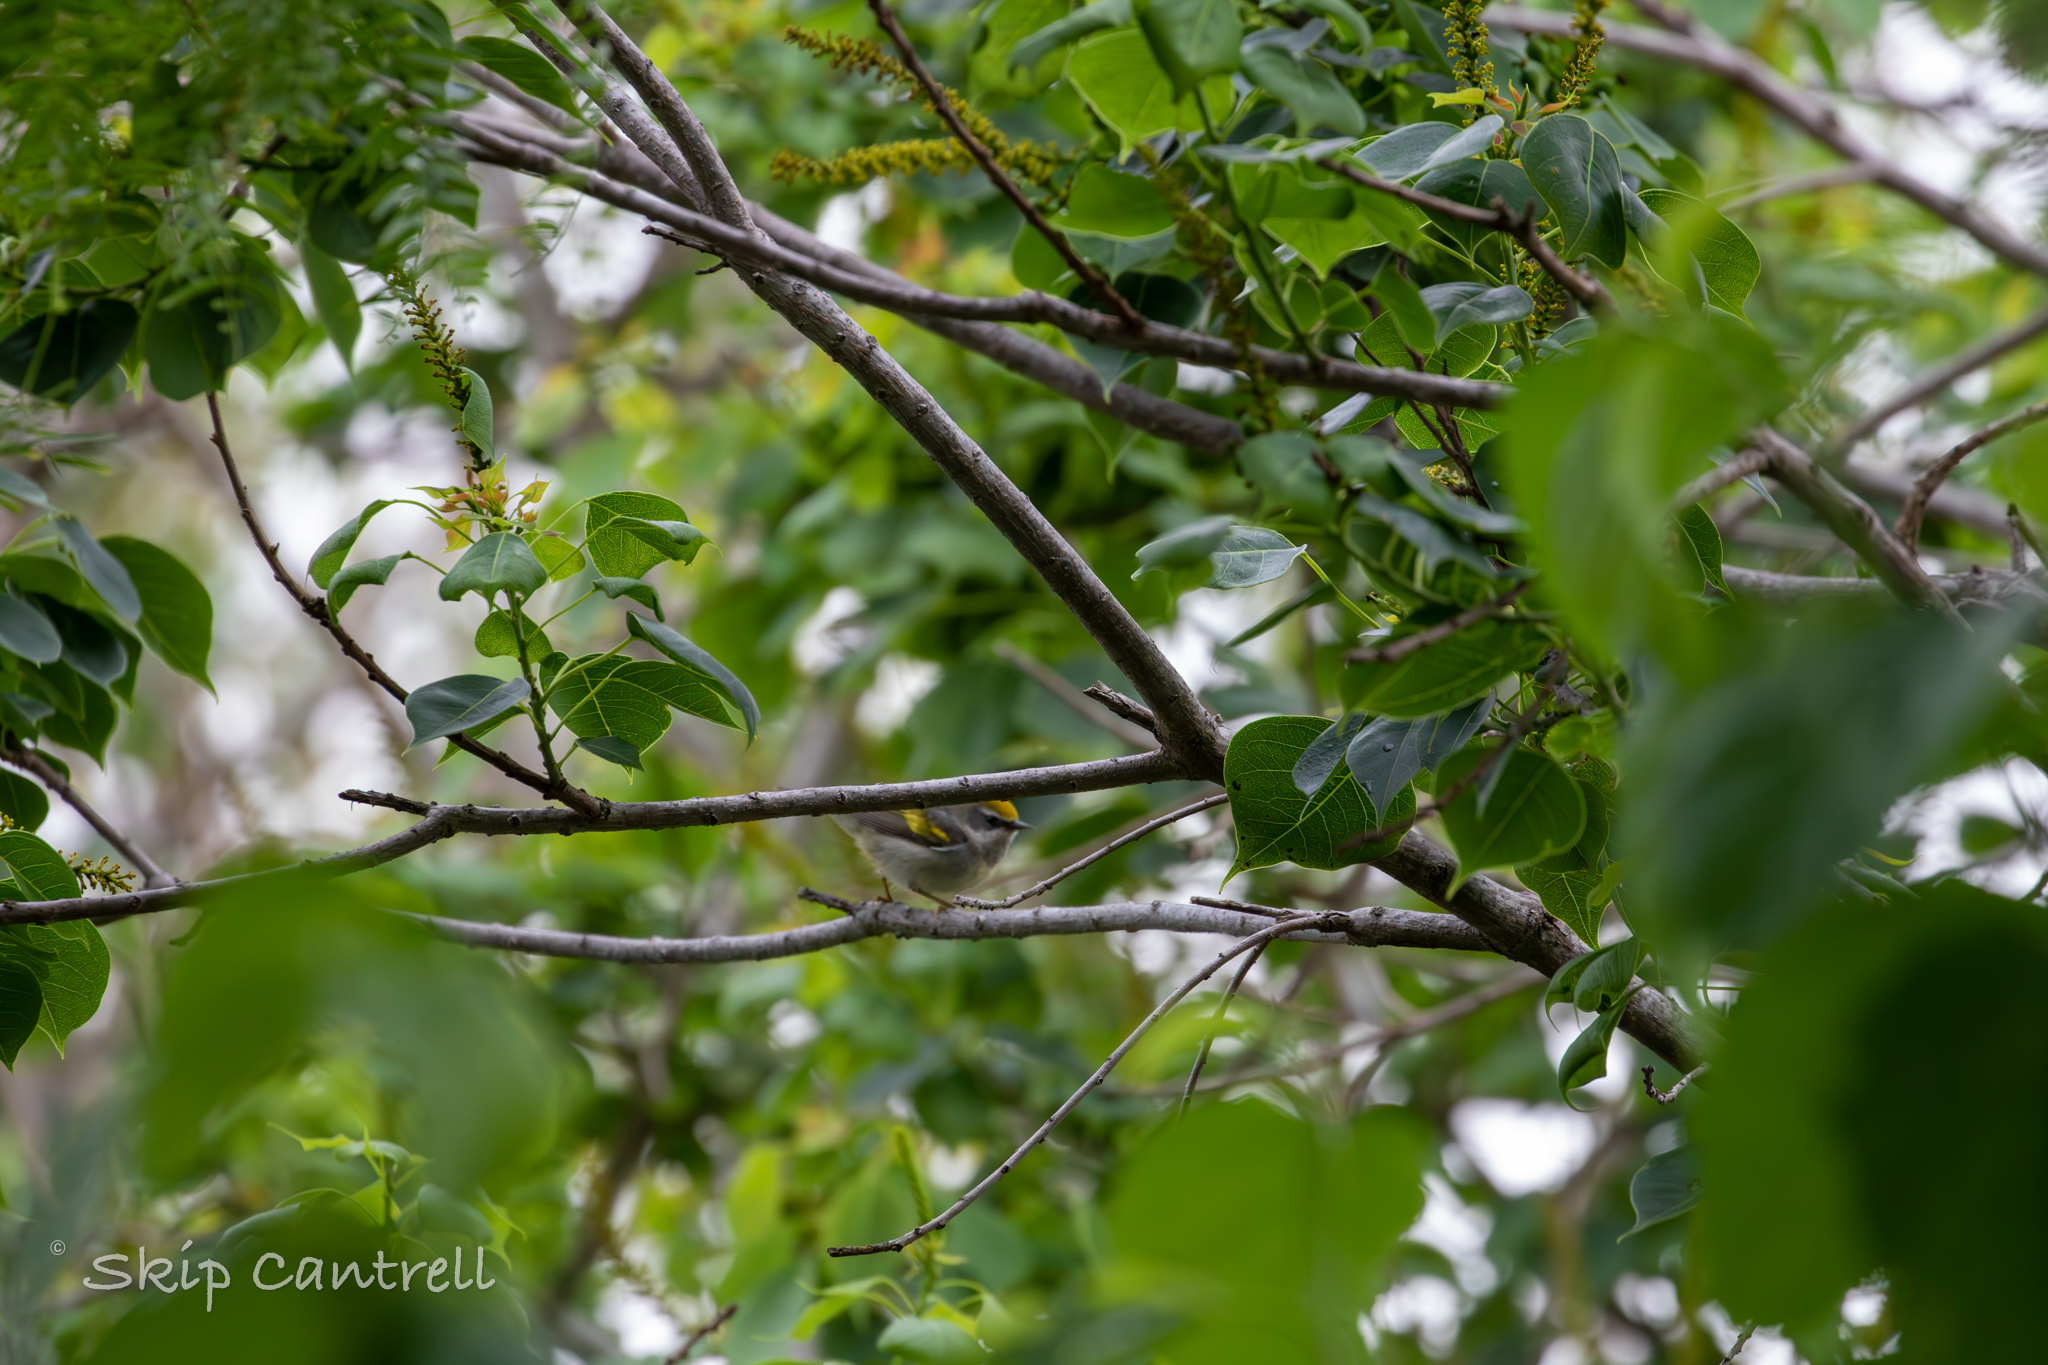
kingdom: Animalia
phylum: Chordata
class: Aves
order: Passeriformes
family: Parulidae
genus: Vermivora
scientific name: Vermivora chrysoptera
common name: Golden-winged warbler
